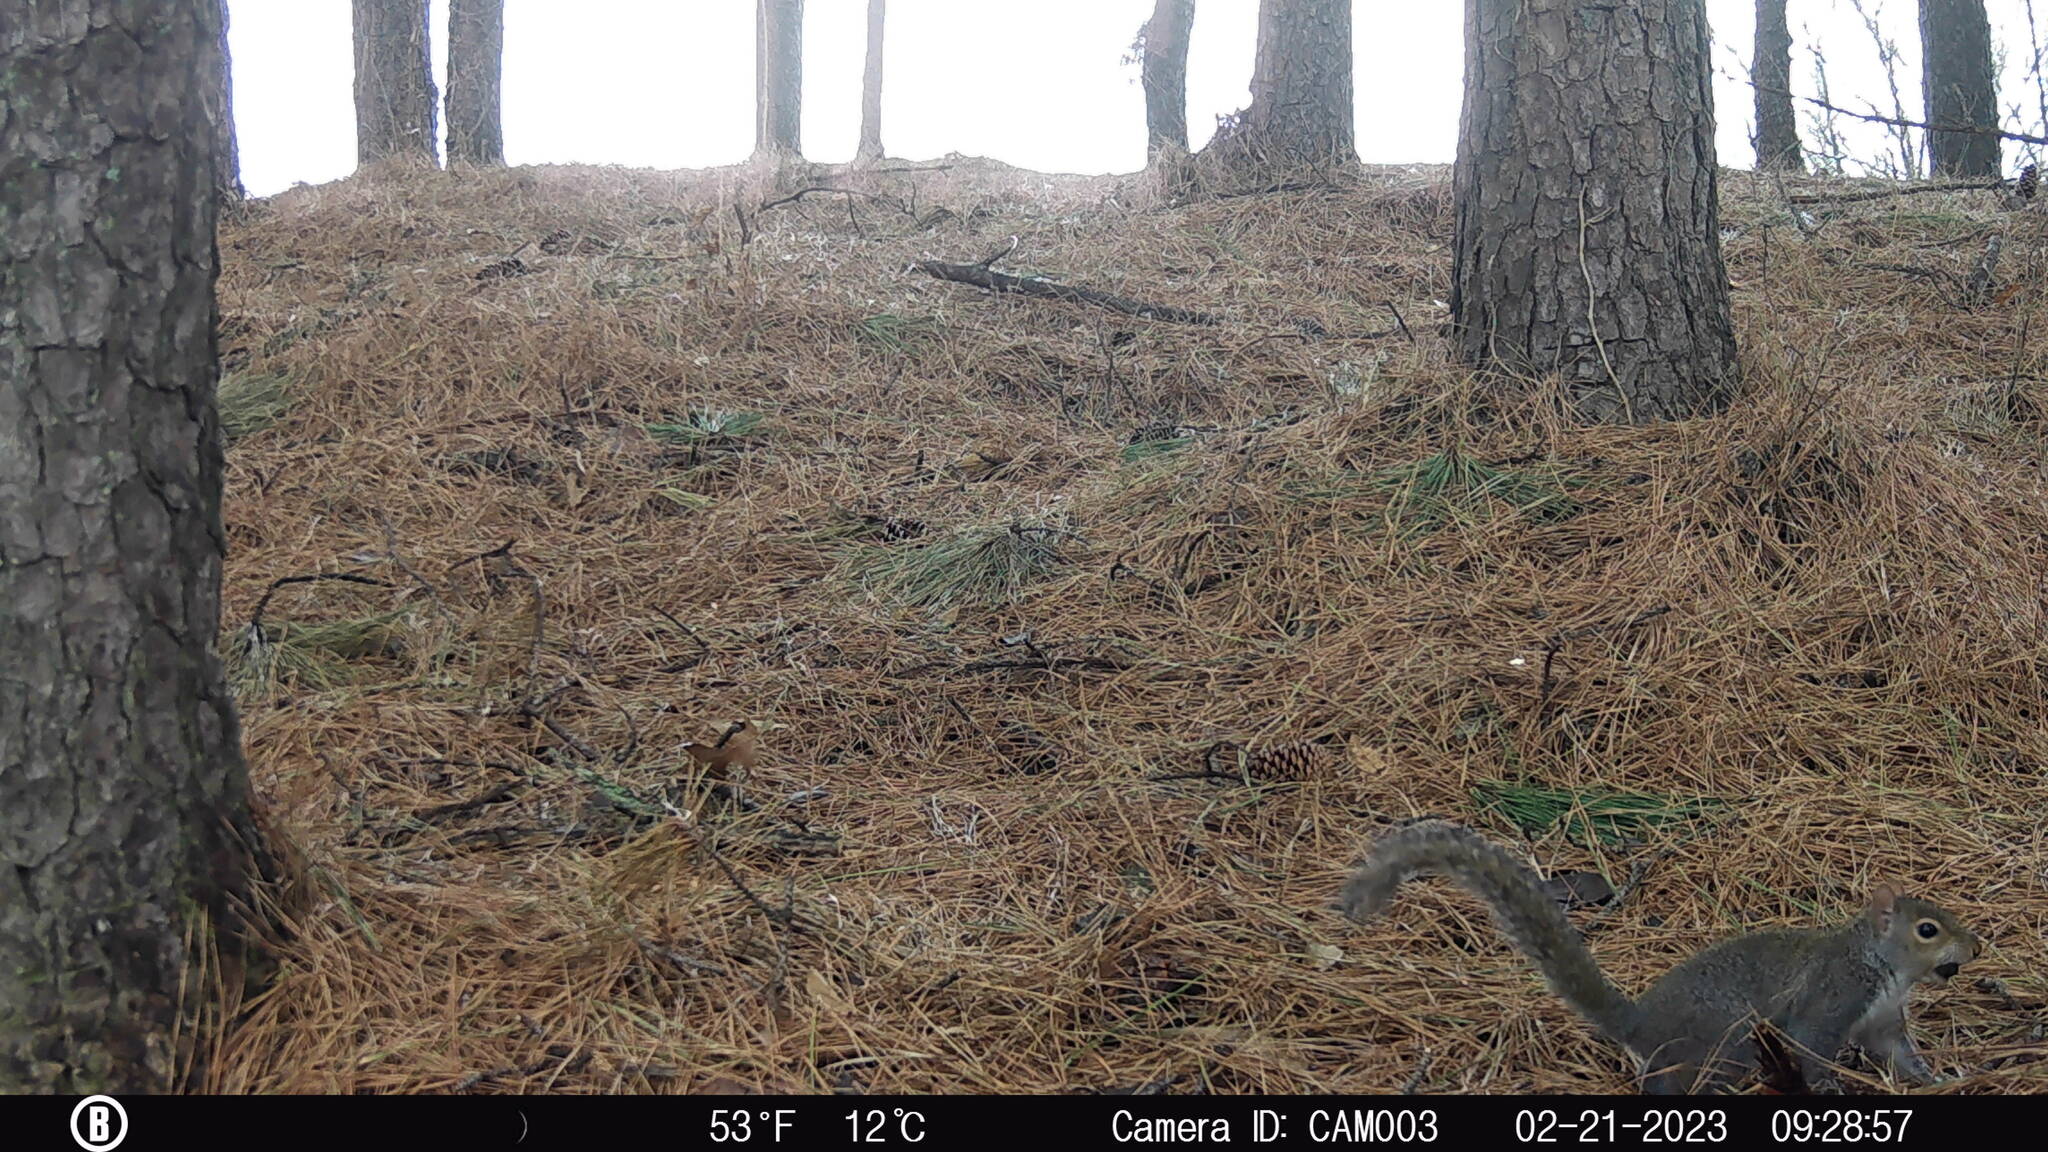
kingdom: Animalia
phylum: Chordata
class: Mammalia
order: Rodentia
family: Sciuridae
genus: Sciurus
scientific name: Sciurus carolinensis
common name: Eastern gray squirrel
